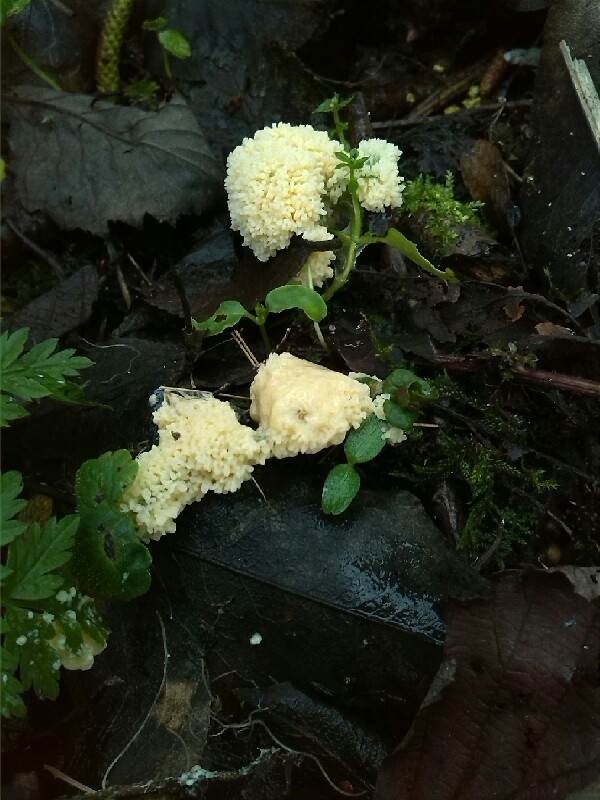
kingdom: Protozoa
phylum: Mycetozoa
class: Myxomycetes
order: Physarales
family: Physaraceae
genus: Fuligo
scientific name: Fuligo septica
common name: Dog vomit slime mold
